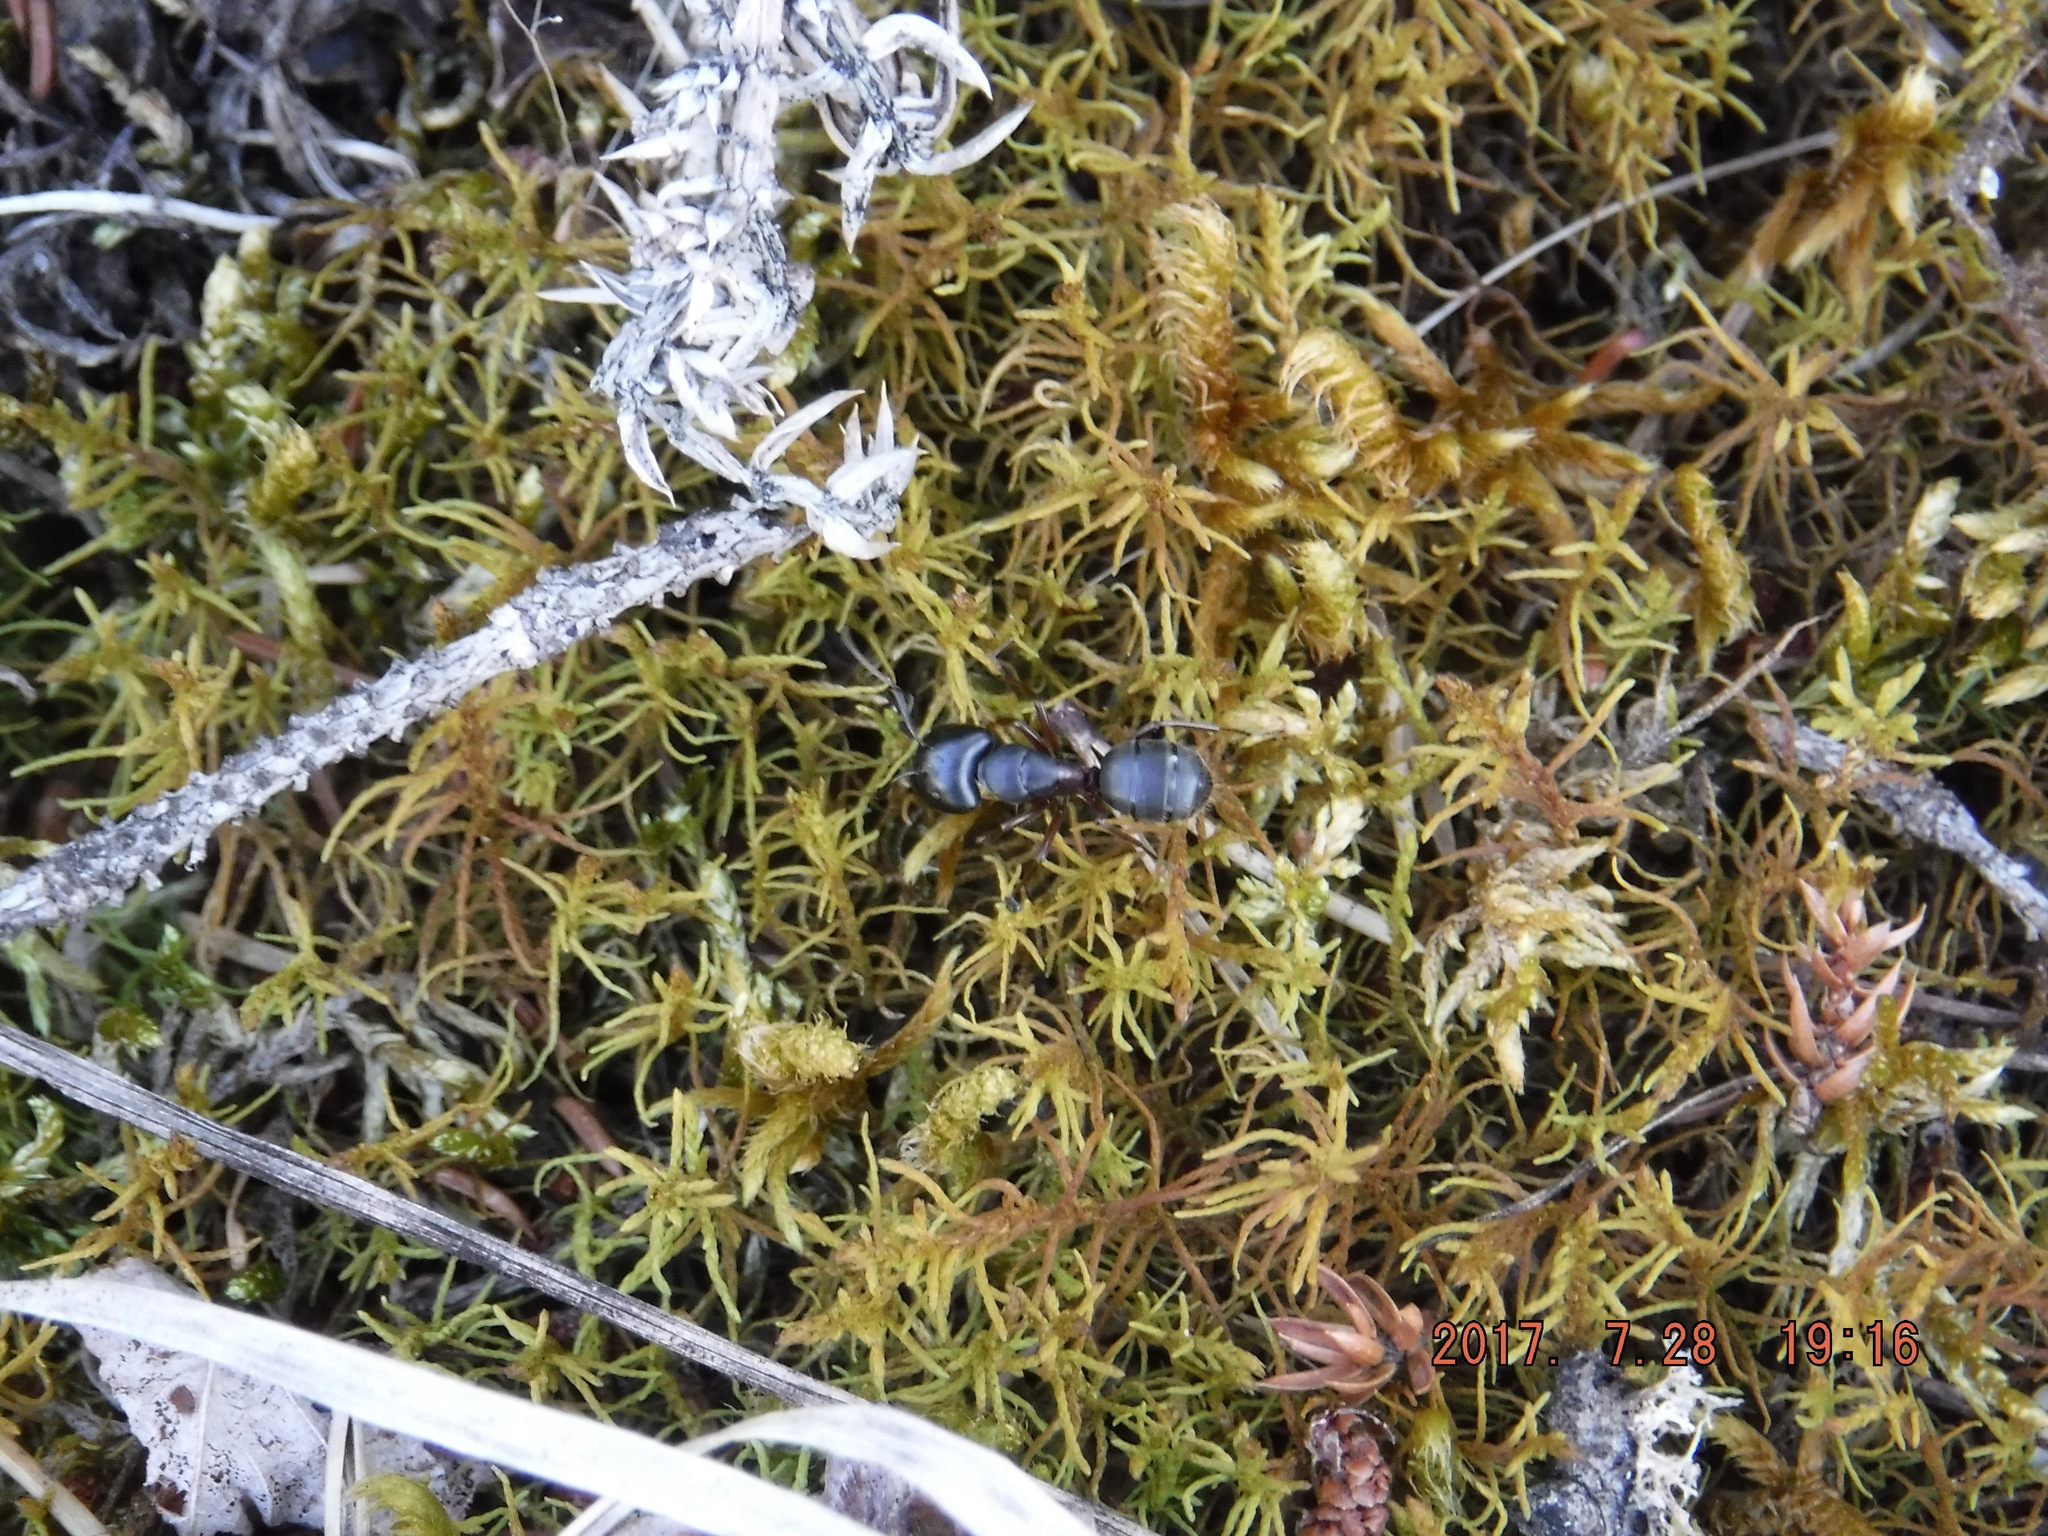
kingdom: Animalia
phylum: Arthropoda
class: Insecta
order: Hymenoptera
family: Formicidae
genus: Camponotus
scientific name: Camponotus herculeanus
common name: Hercules ant
